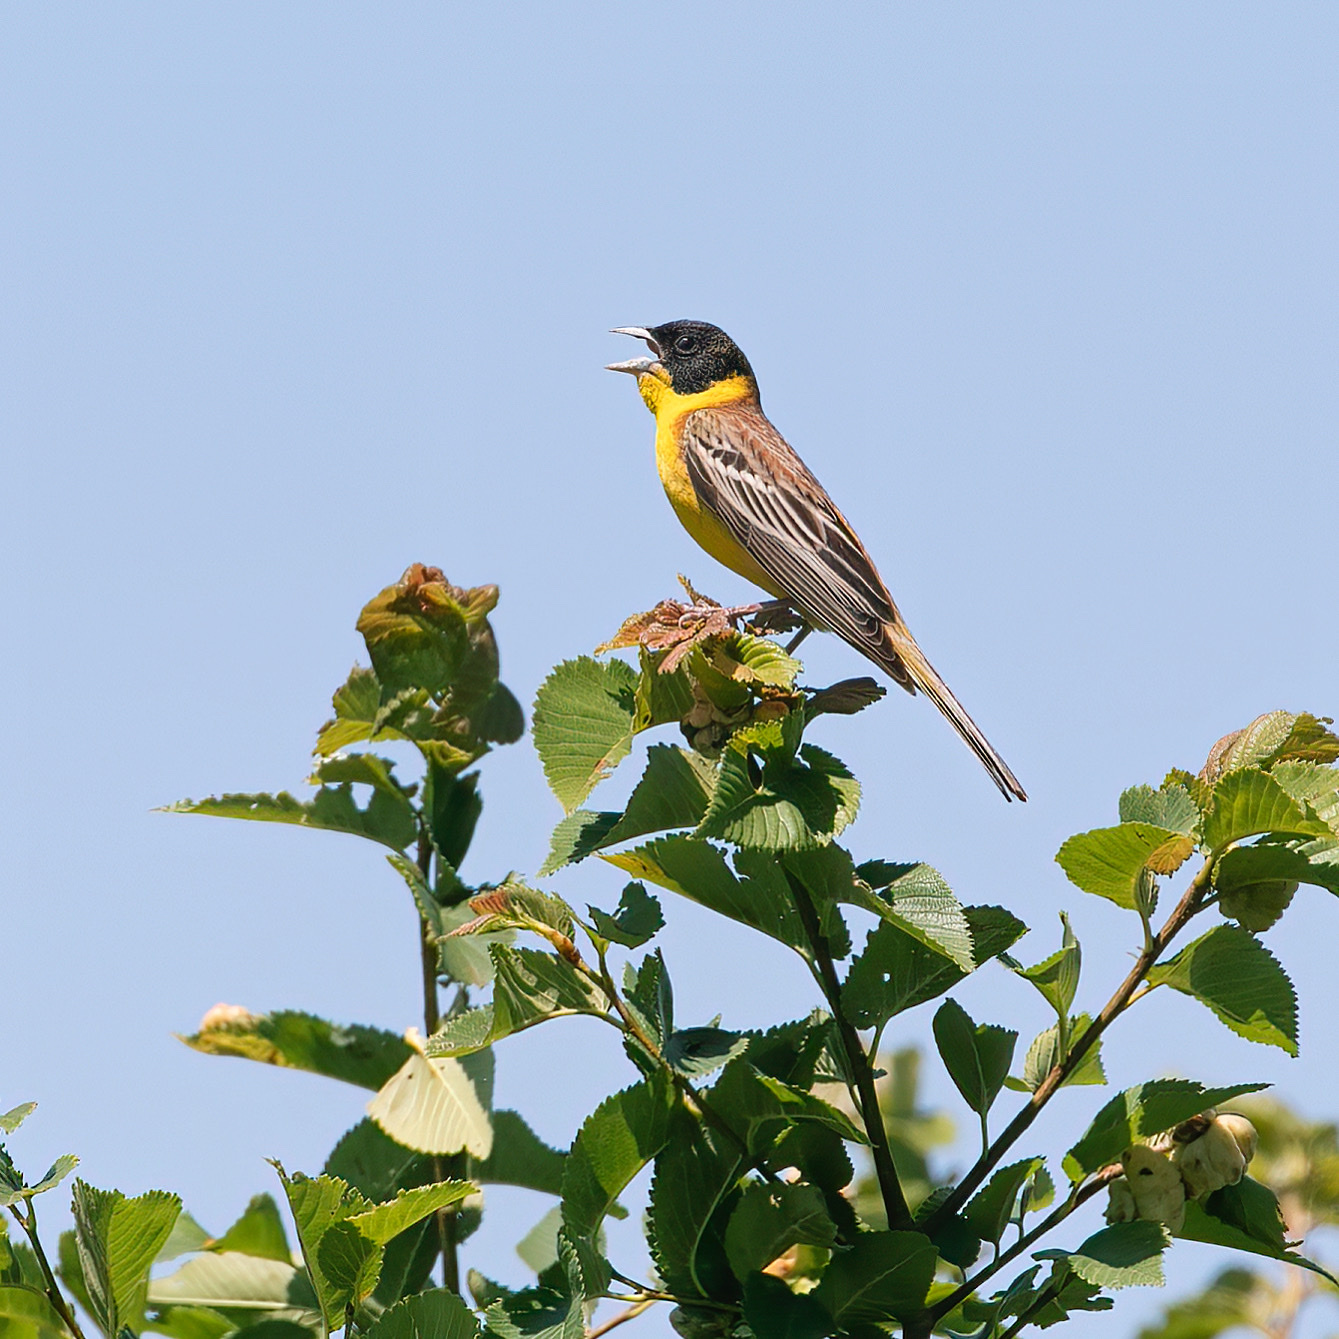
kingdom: Animalia
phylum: Chordata
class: Aves
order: Passeriformes
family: Emberizidae
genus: Emberiza
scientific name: Emberiza melanocephala
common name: Black-headed bunting
